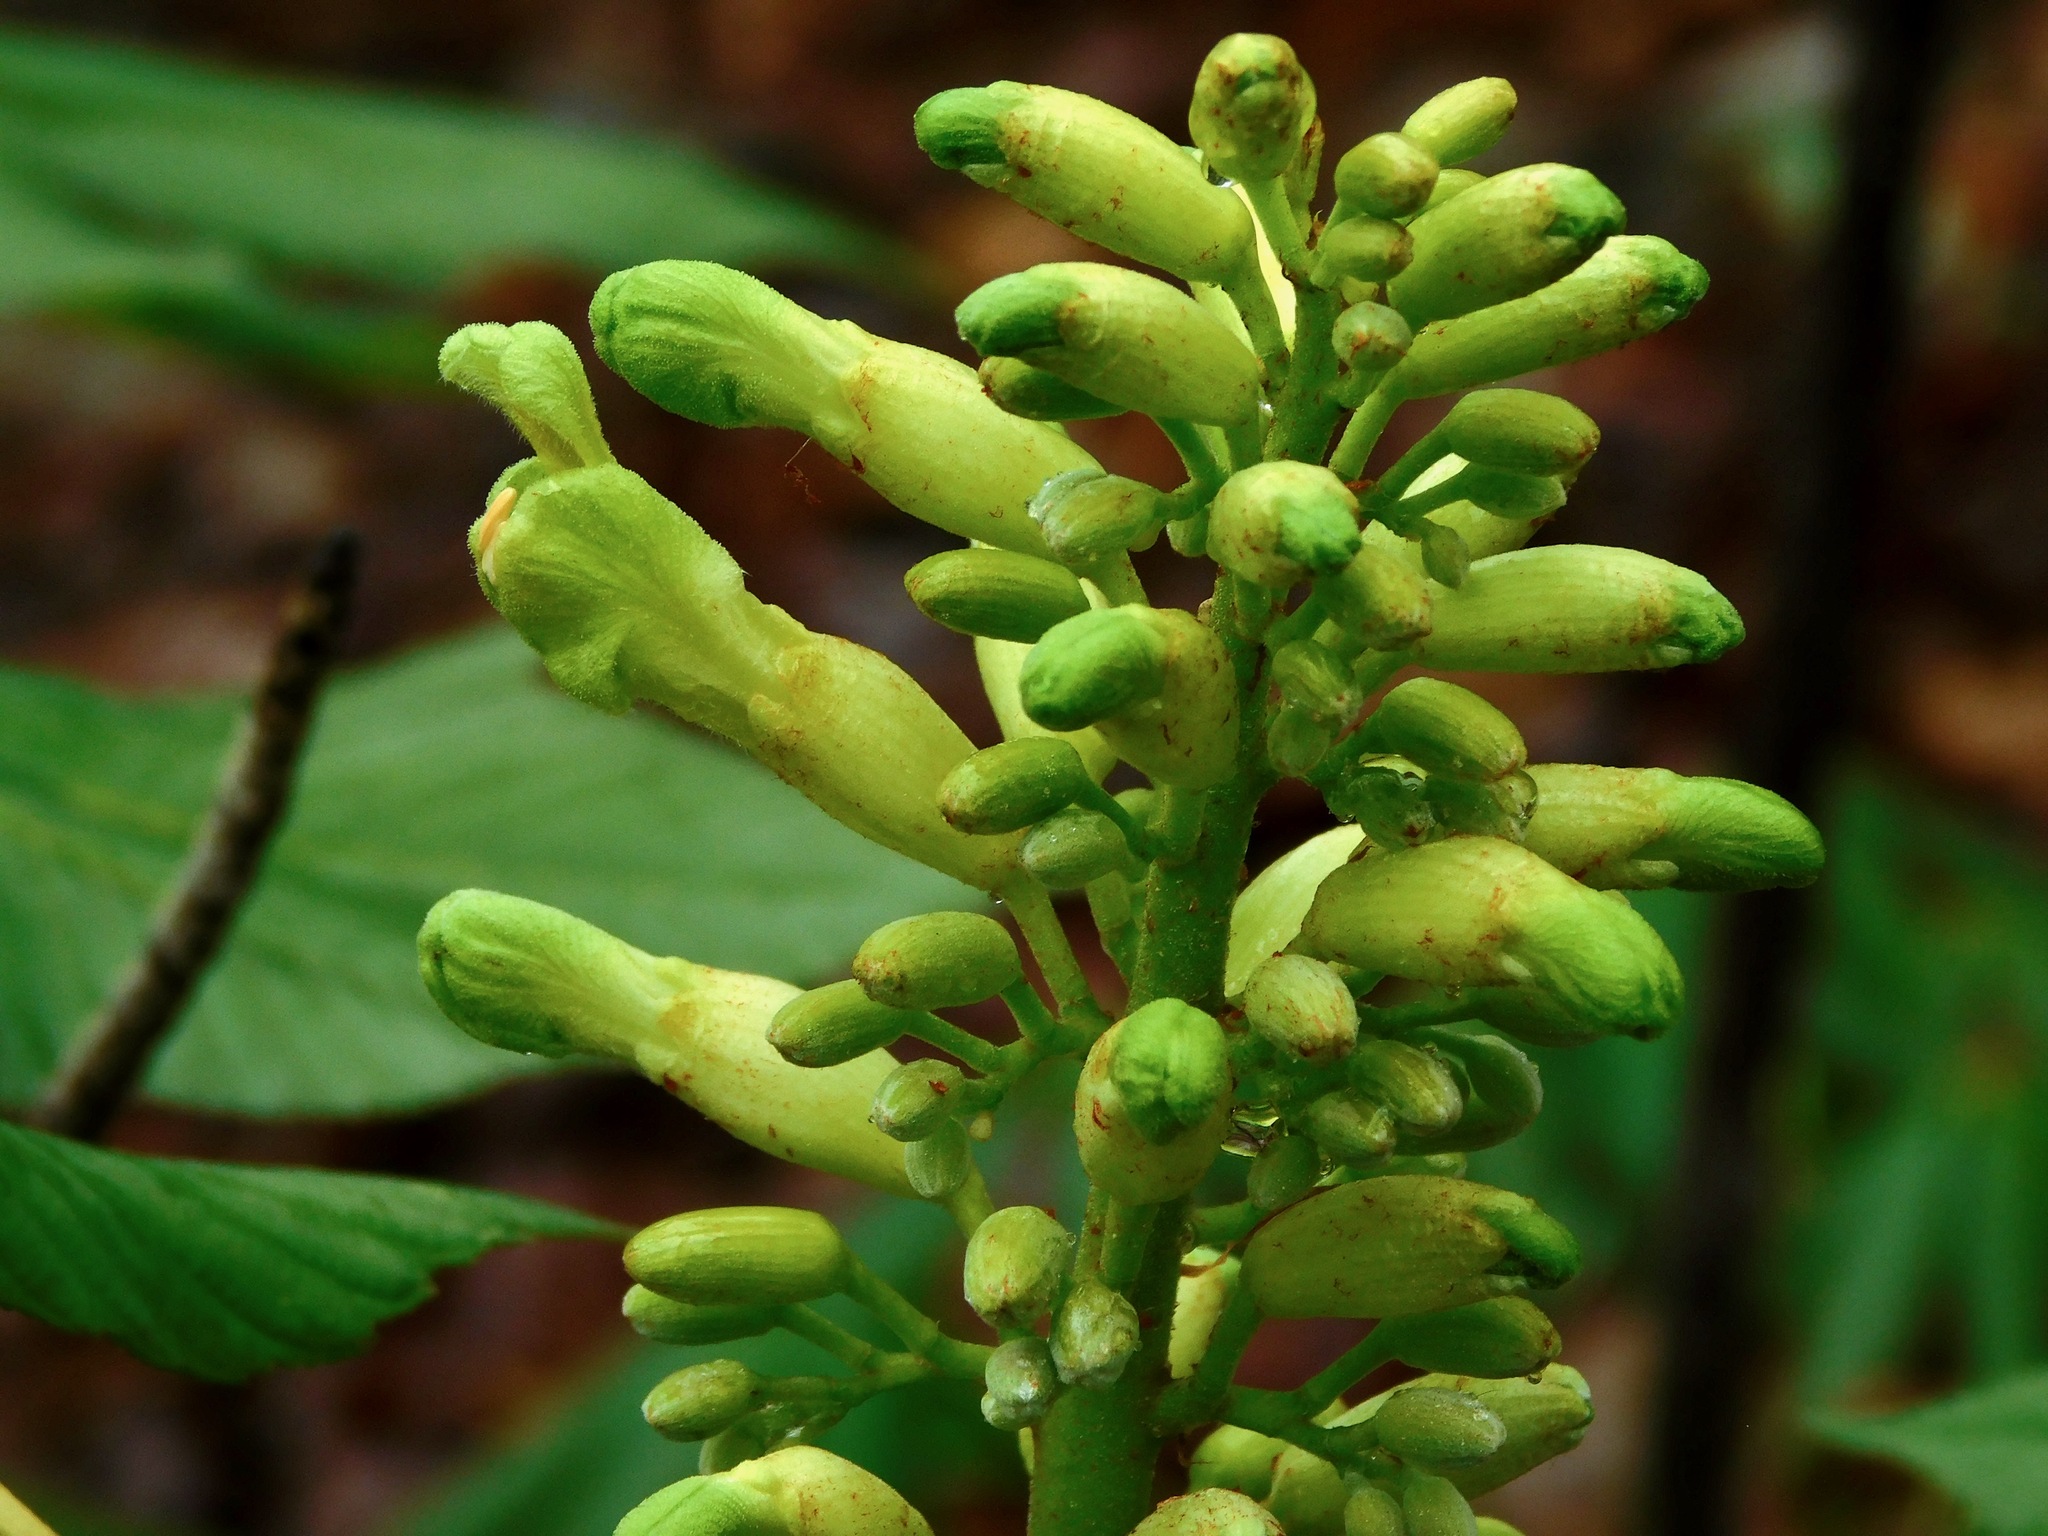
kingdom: Plantae
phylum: Tracheophyta
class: Magnoliopsida
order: Sapindales
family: Sapindaceae
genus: Aesculus
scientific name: Aesculus sylvatica
